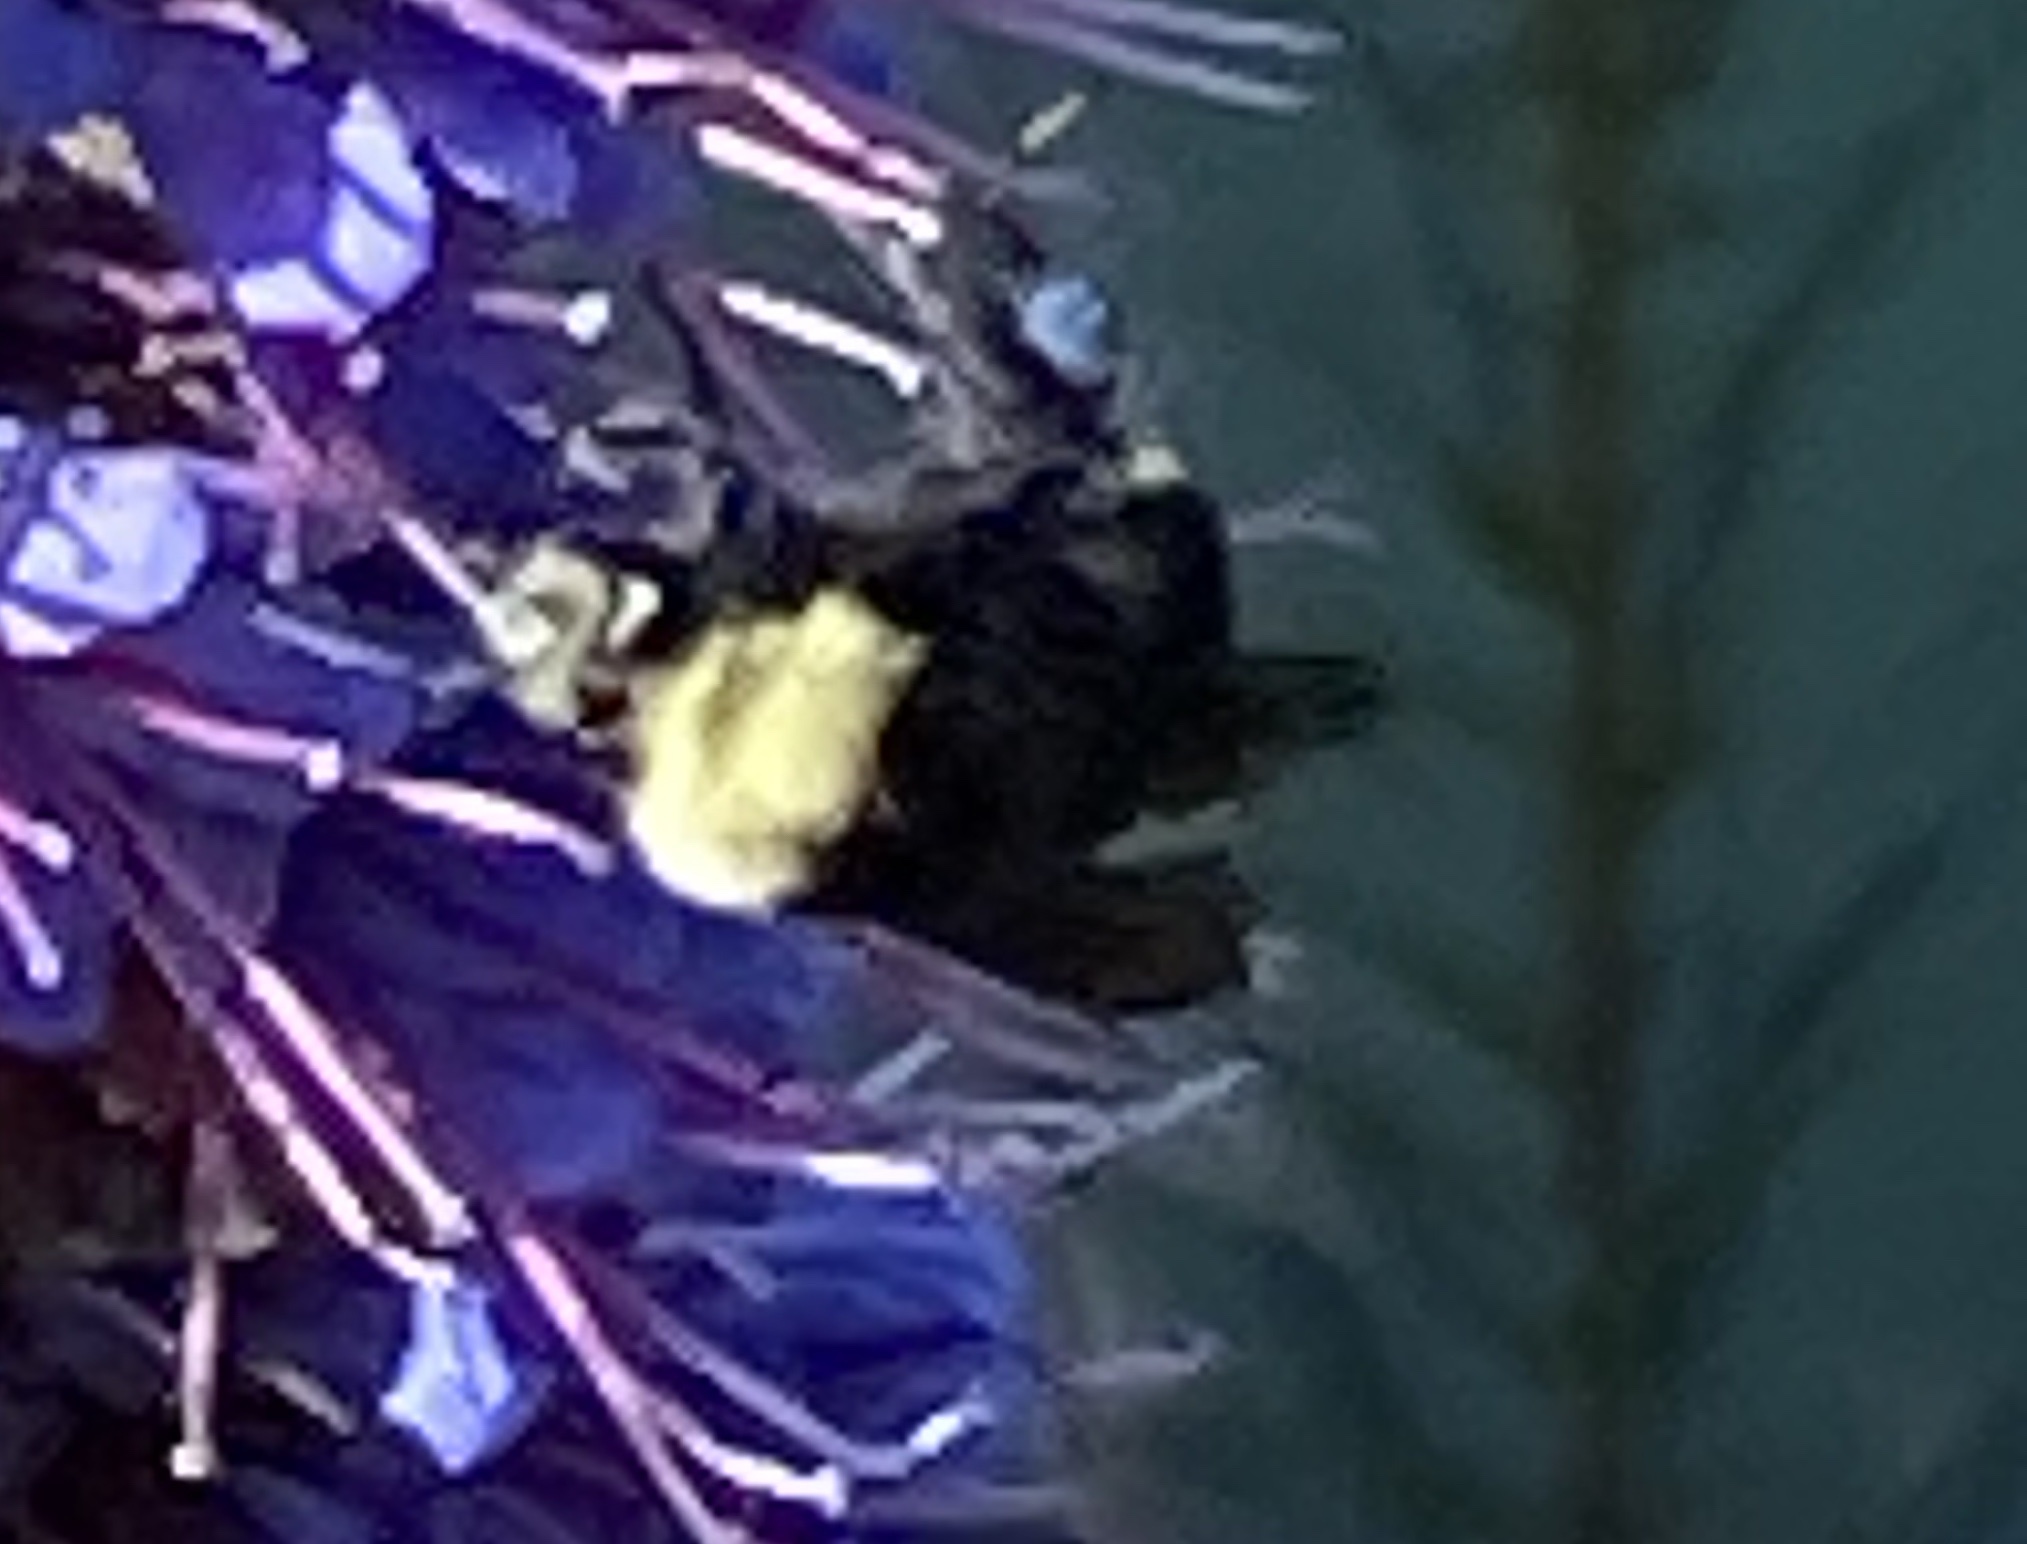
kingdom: Animalia
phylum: Arthropoda
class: Insecta
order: Hymenoptera
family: Apidae
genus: Bombus
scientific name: Bombus vosnesenskii
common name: Vosnesensky bumble bee
